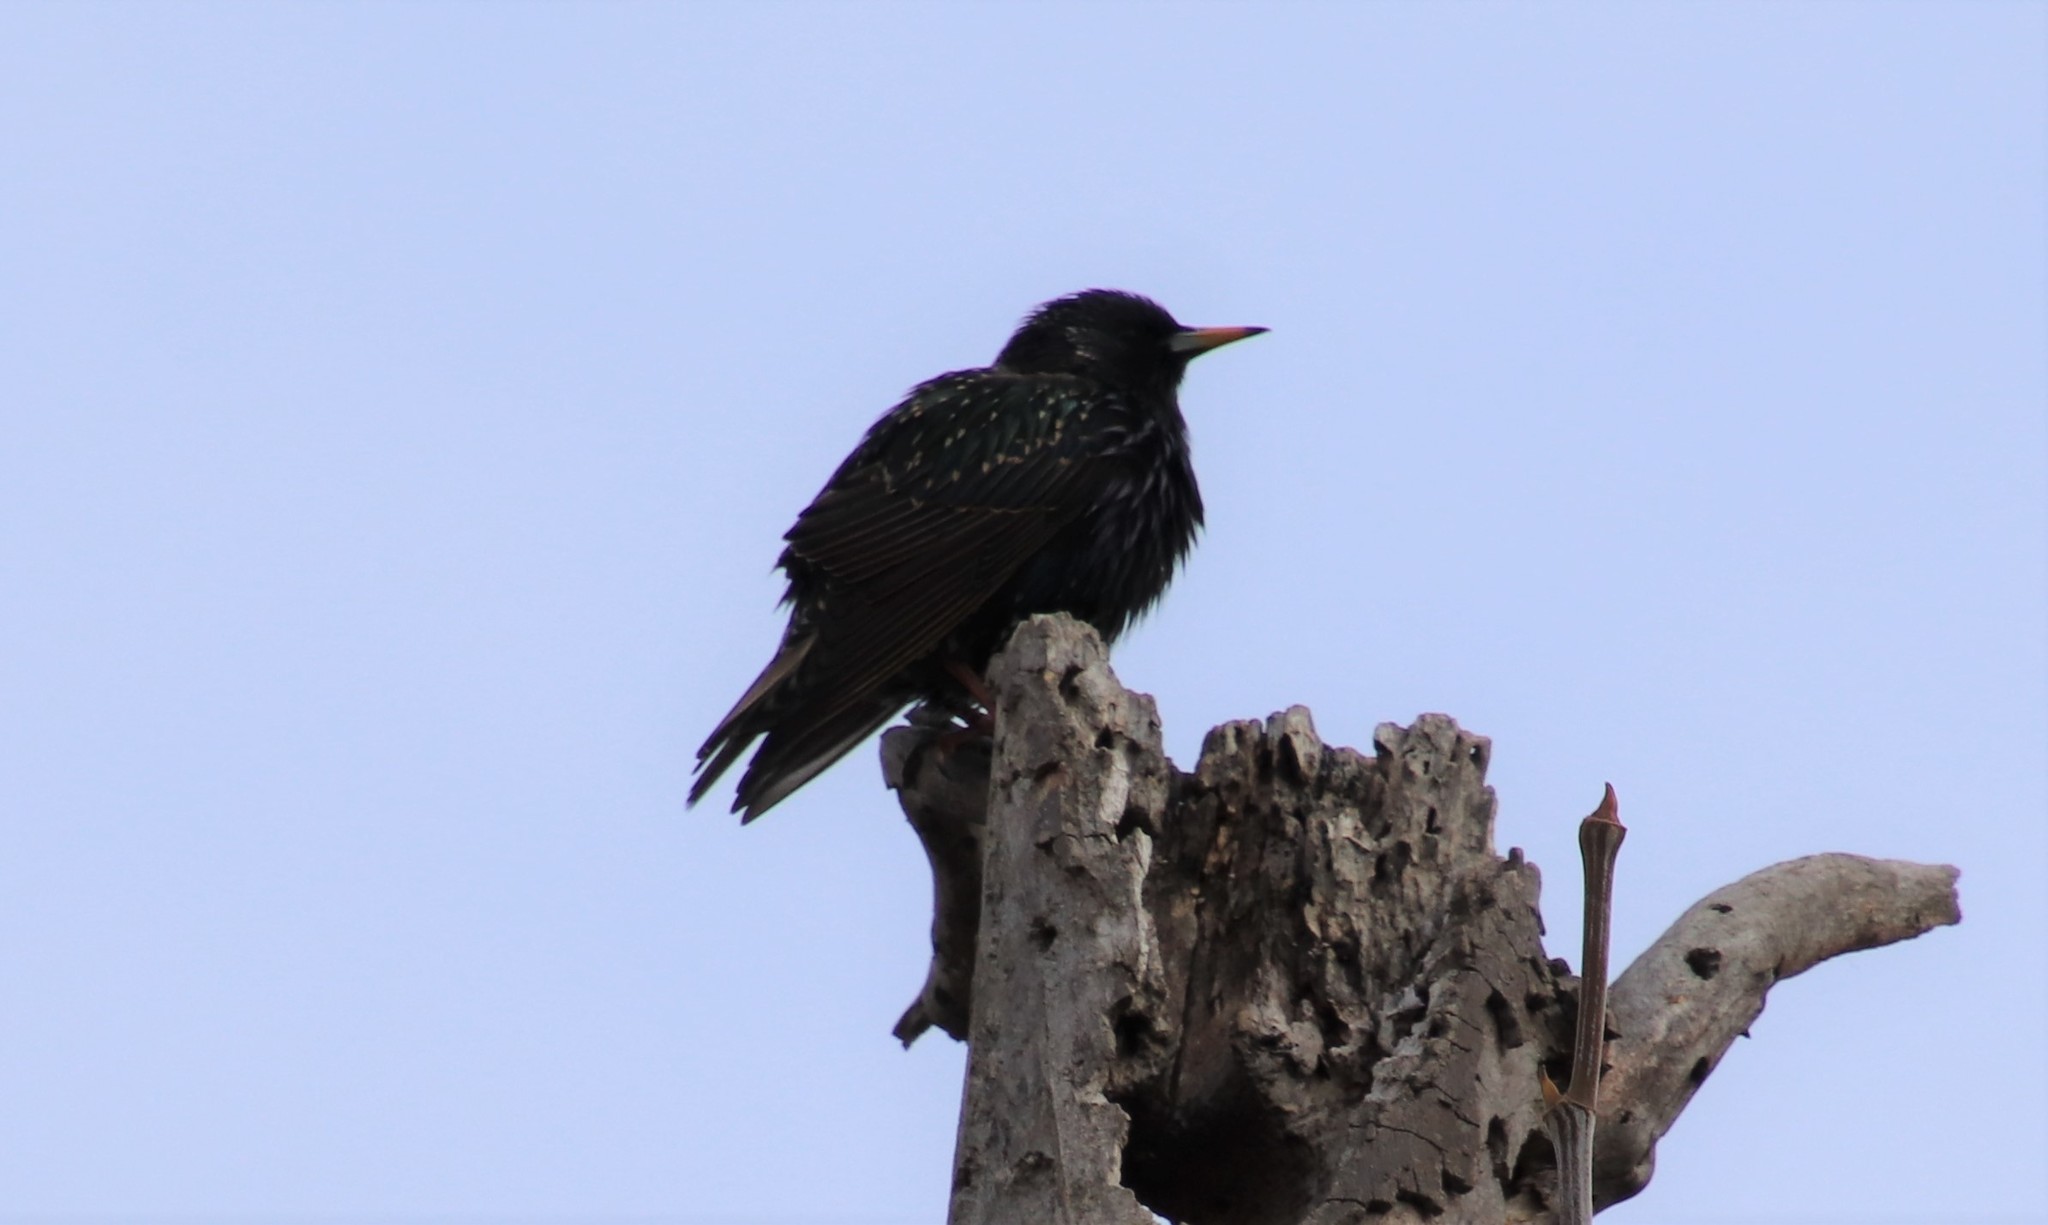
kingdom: Animalia
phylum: Chordata
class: Aves
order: Passeriformes
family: Sturnidae
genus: Sturnus
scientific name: Sturnus vulgaris
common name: Common starling
